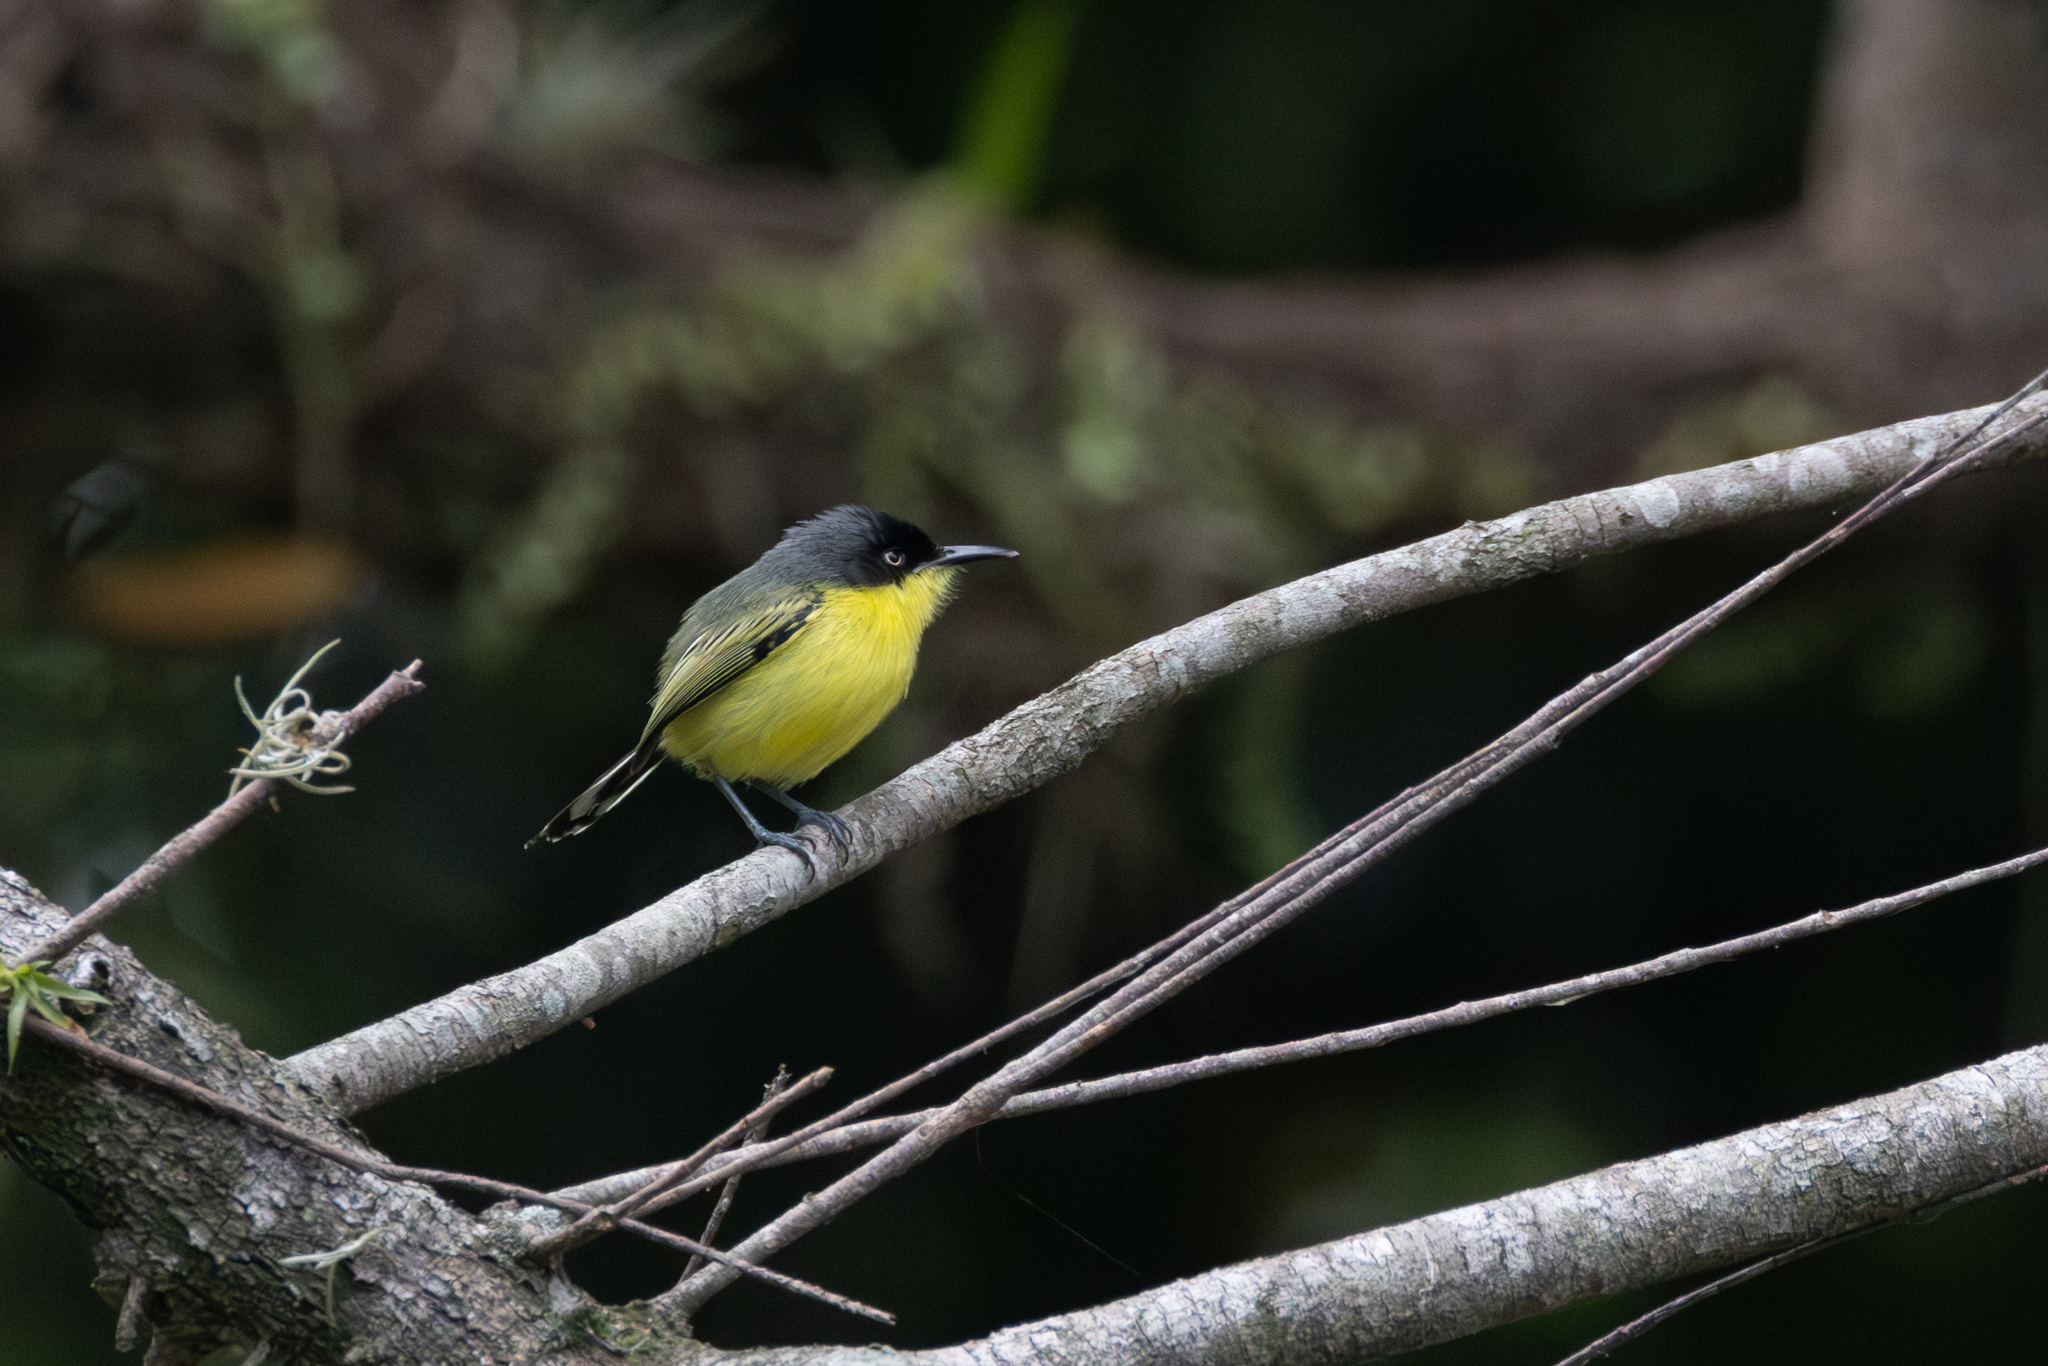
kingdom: Animalia
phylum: Chordata
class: Aves
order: Passeriformes
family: Tyrannidae
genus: Todirostrum
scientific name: Todirostrum cinereum
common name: Common tody-flycatcher
